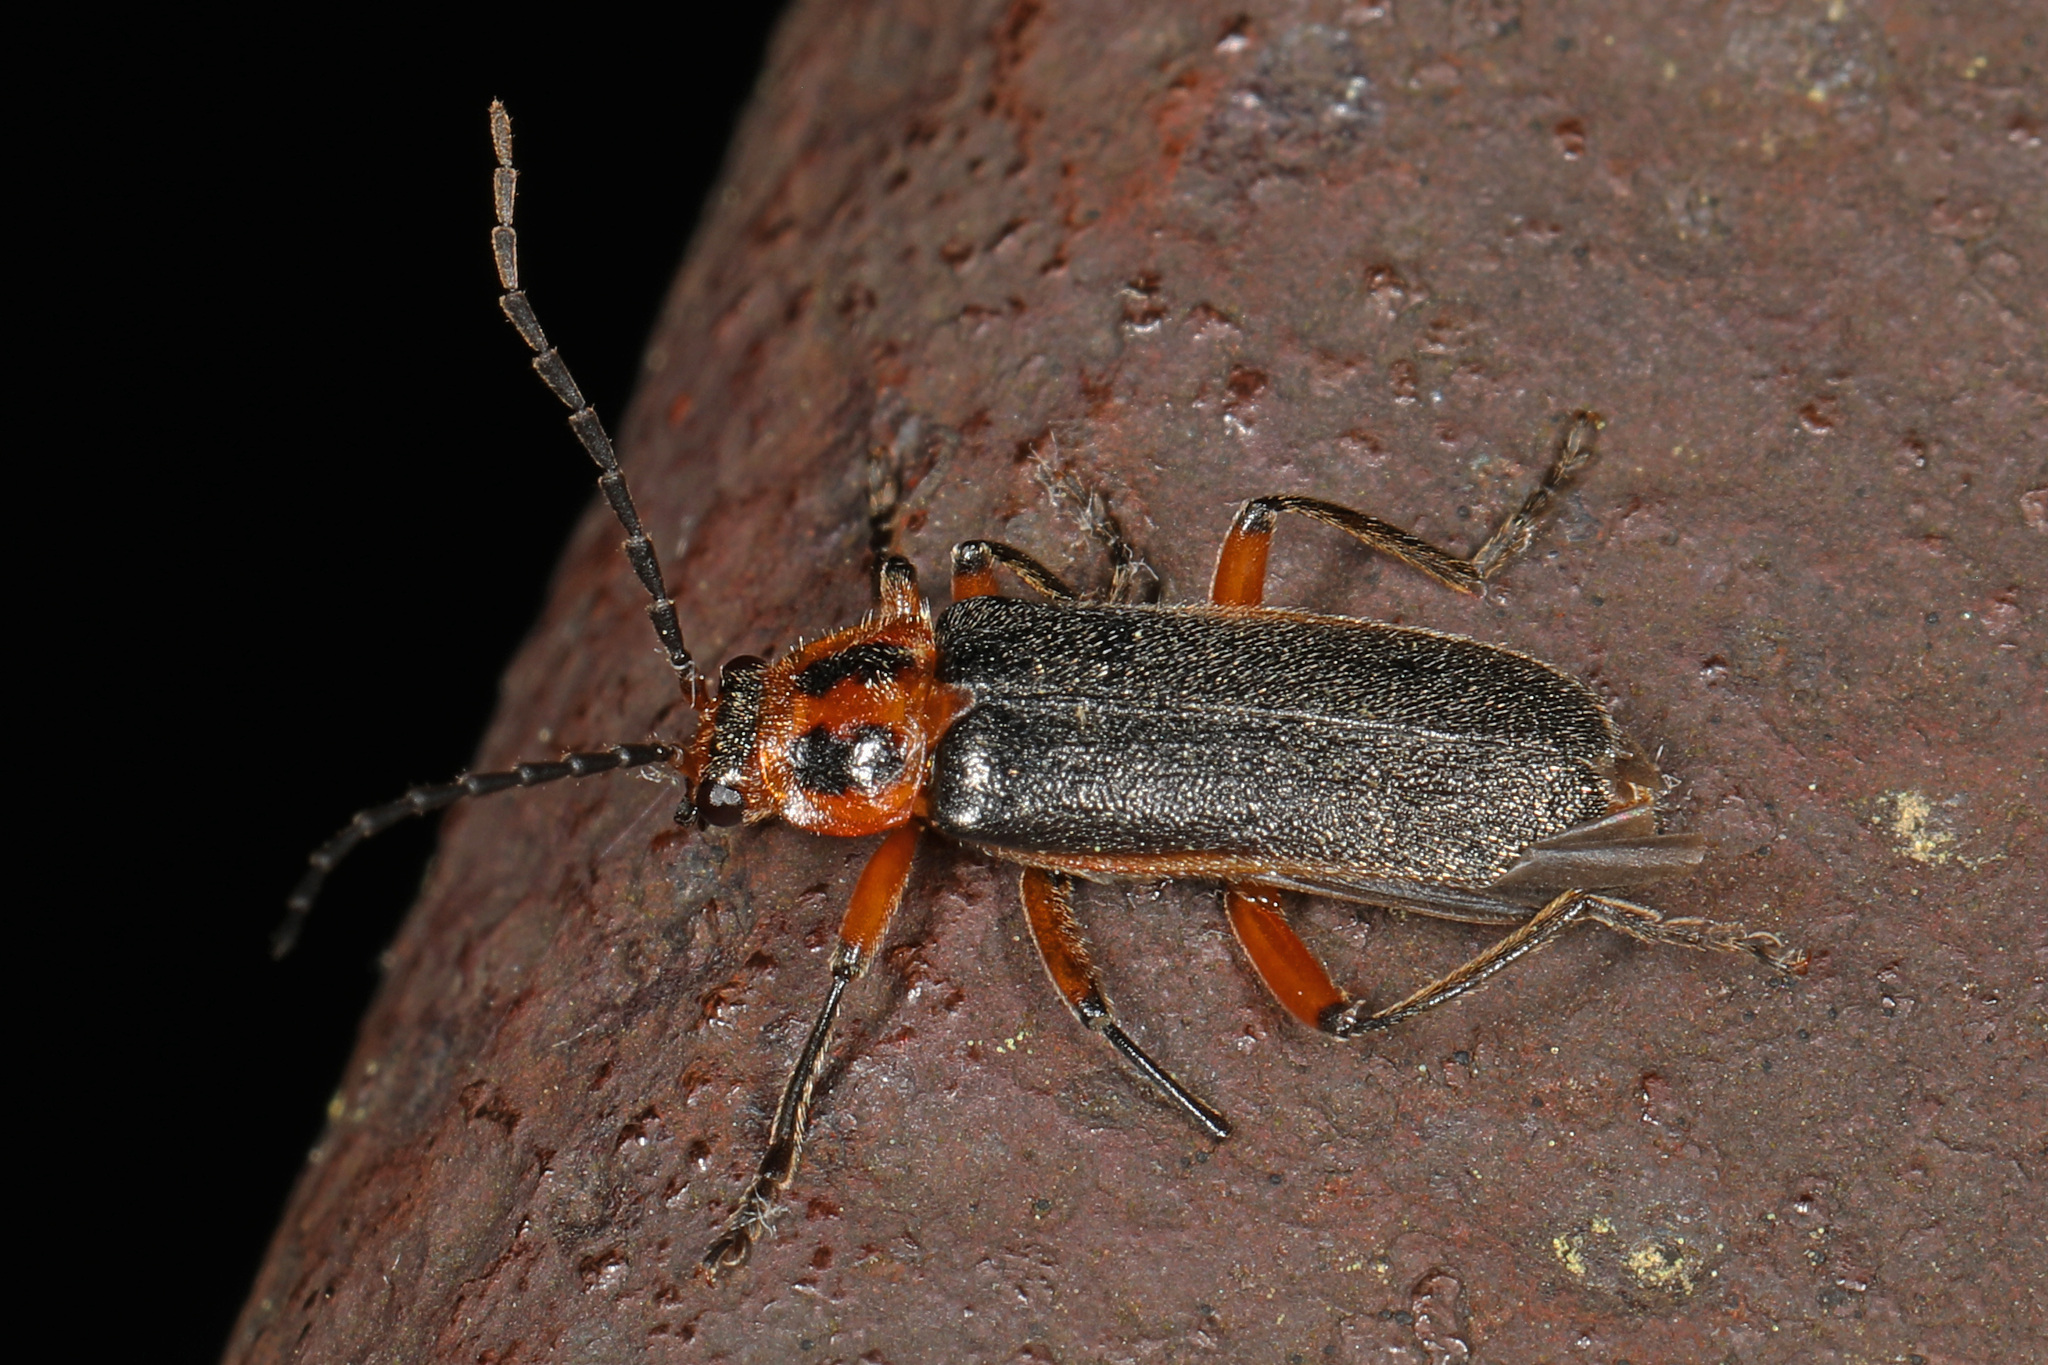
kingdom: Animalia
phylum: Arthropoda
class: Insecta
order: Coleoptera
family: Cantharidae
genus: Atalantycha
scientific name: Atalantycha bilineata
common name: Two-lined leatherwing
